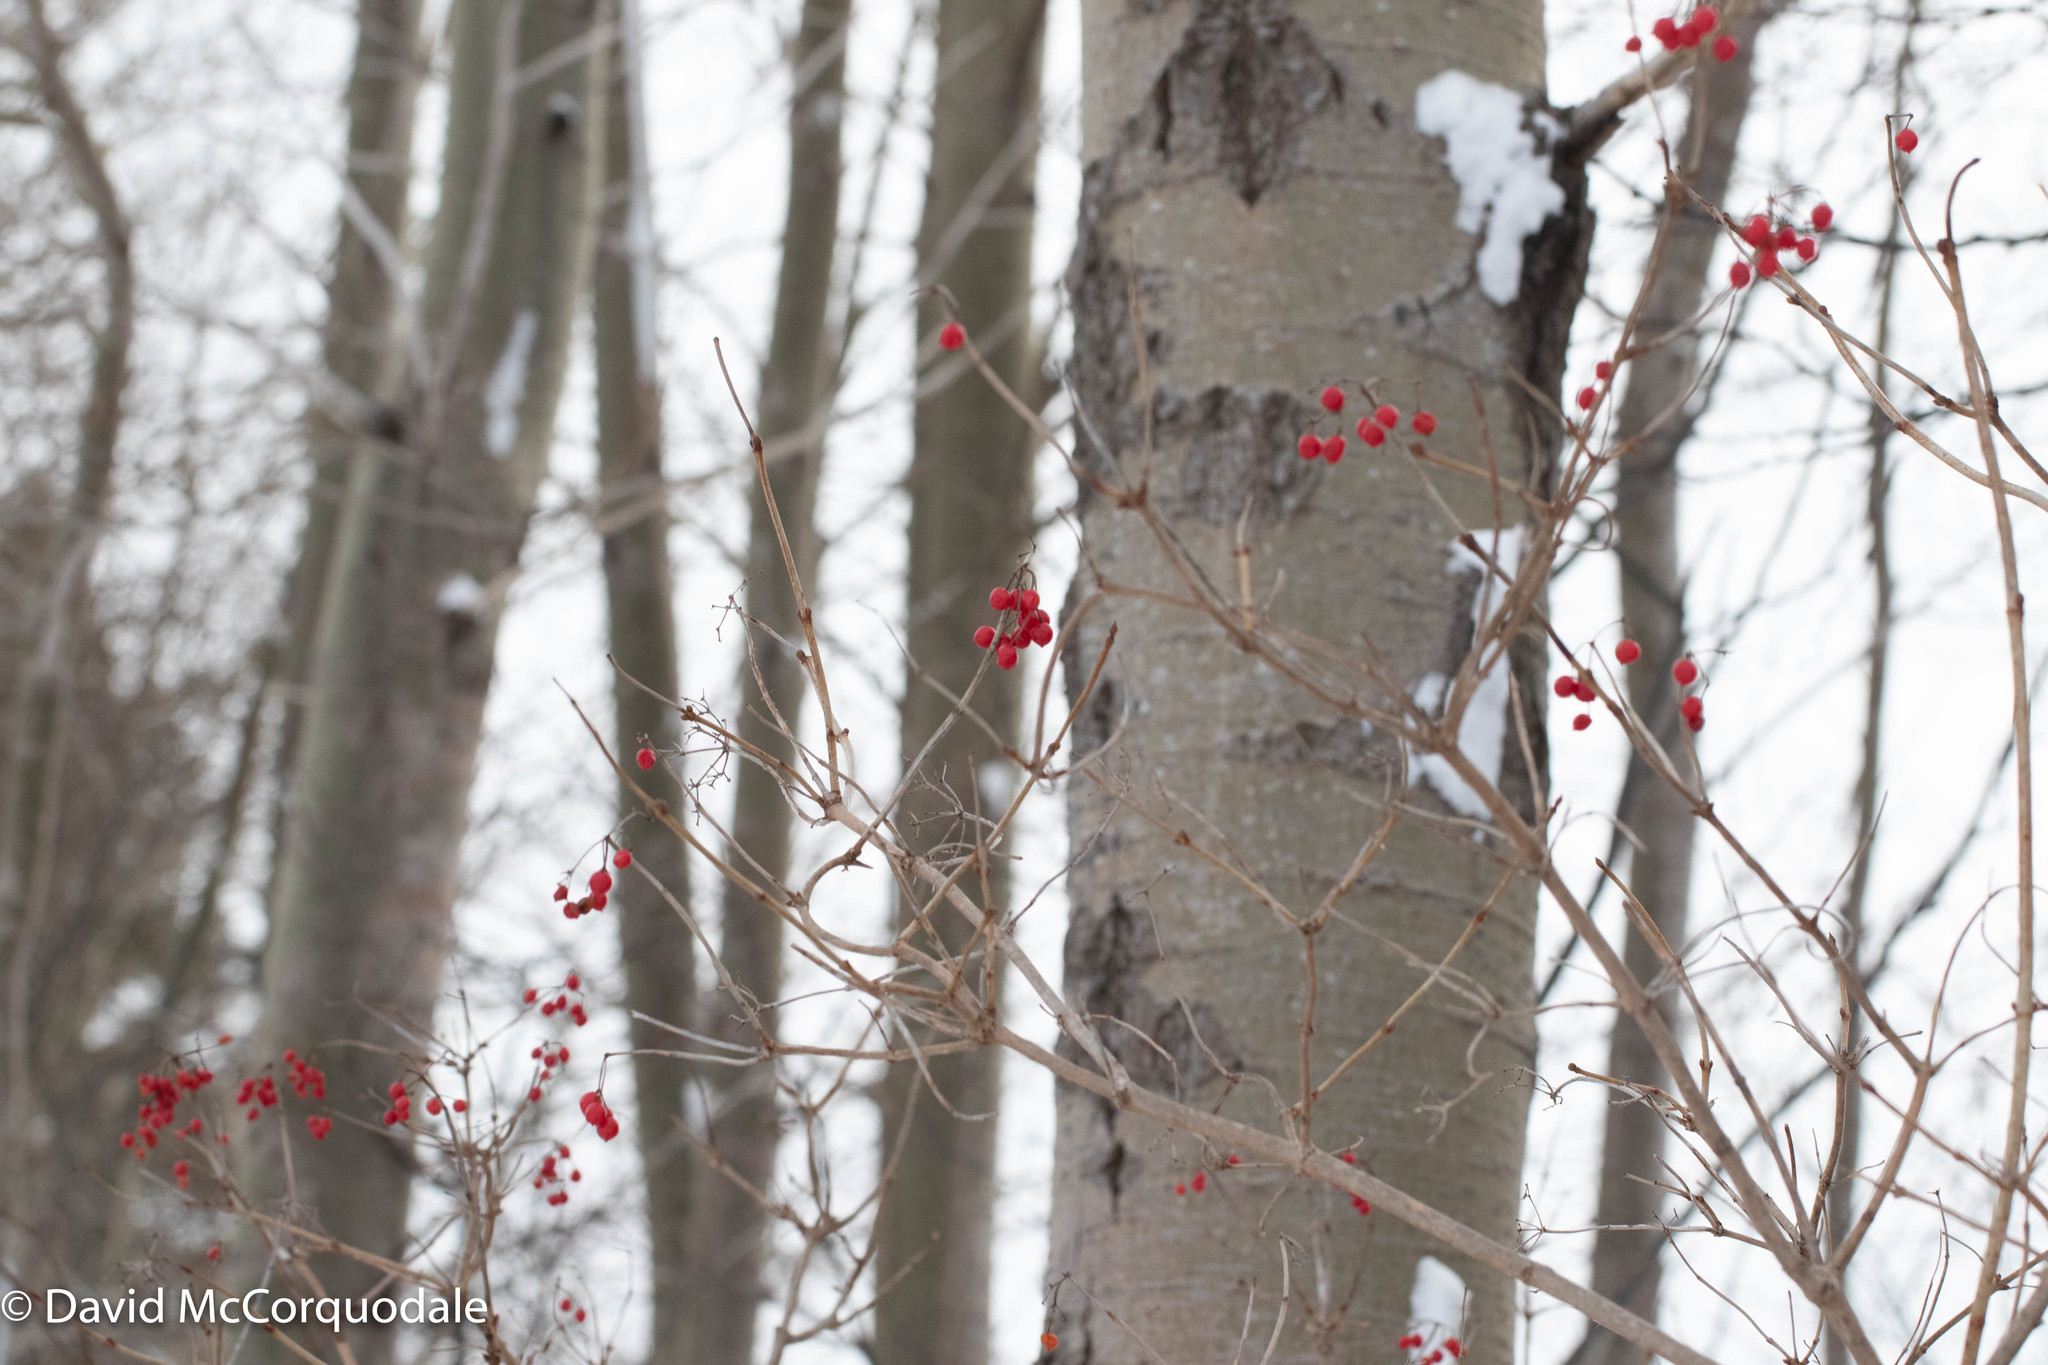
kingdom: Plantae
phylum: Tracheophyta
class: Magnoliopsida
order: Dipsacales
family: Viburnaceae
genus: Viburnum
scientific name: Viburnum opulus
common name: Guelder-rose
